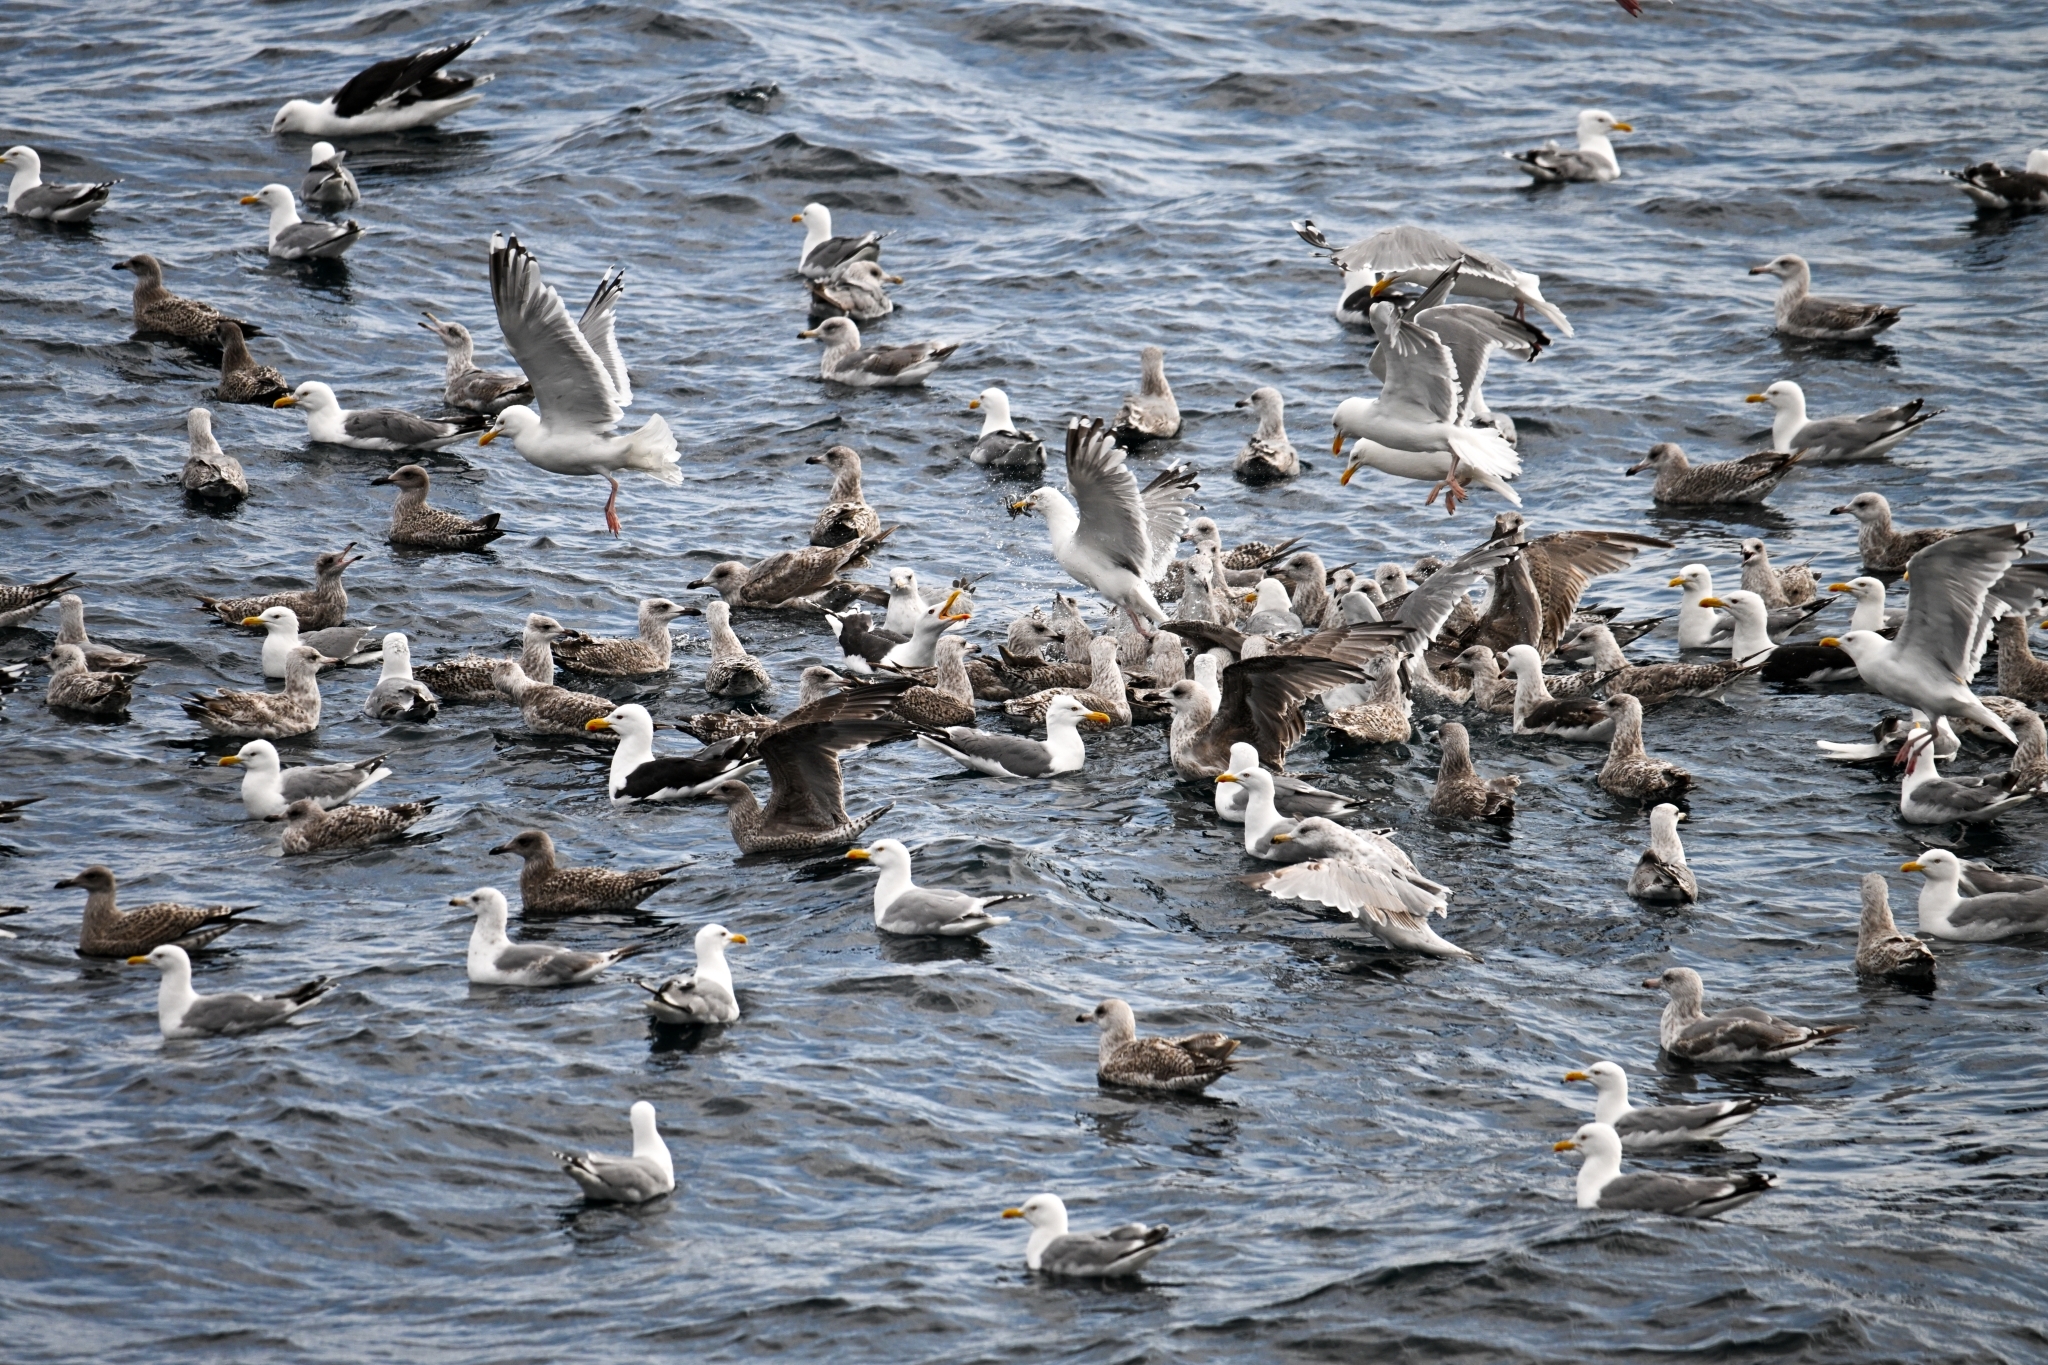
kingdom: Animalia
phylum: Chordata
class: Aves
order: Charadriiformes
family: Laridae
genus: Larus
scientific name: Larus argentatus
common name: Herring gull
